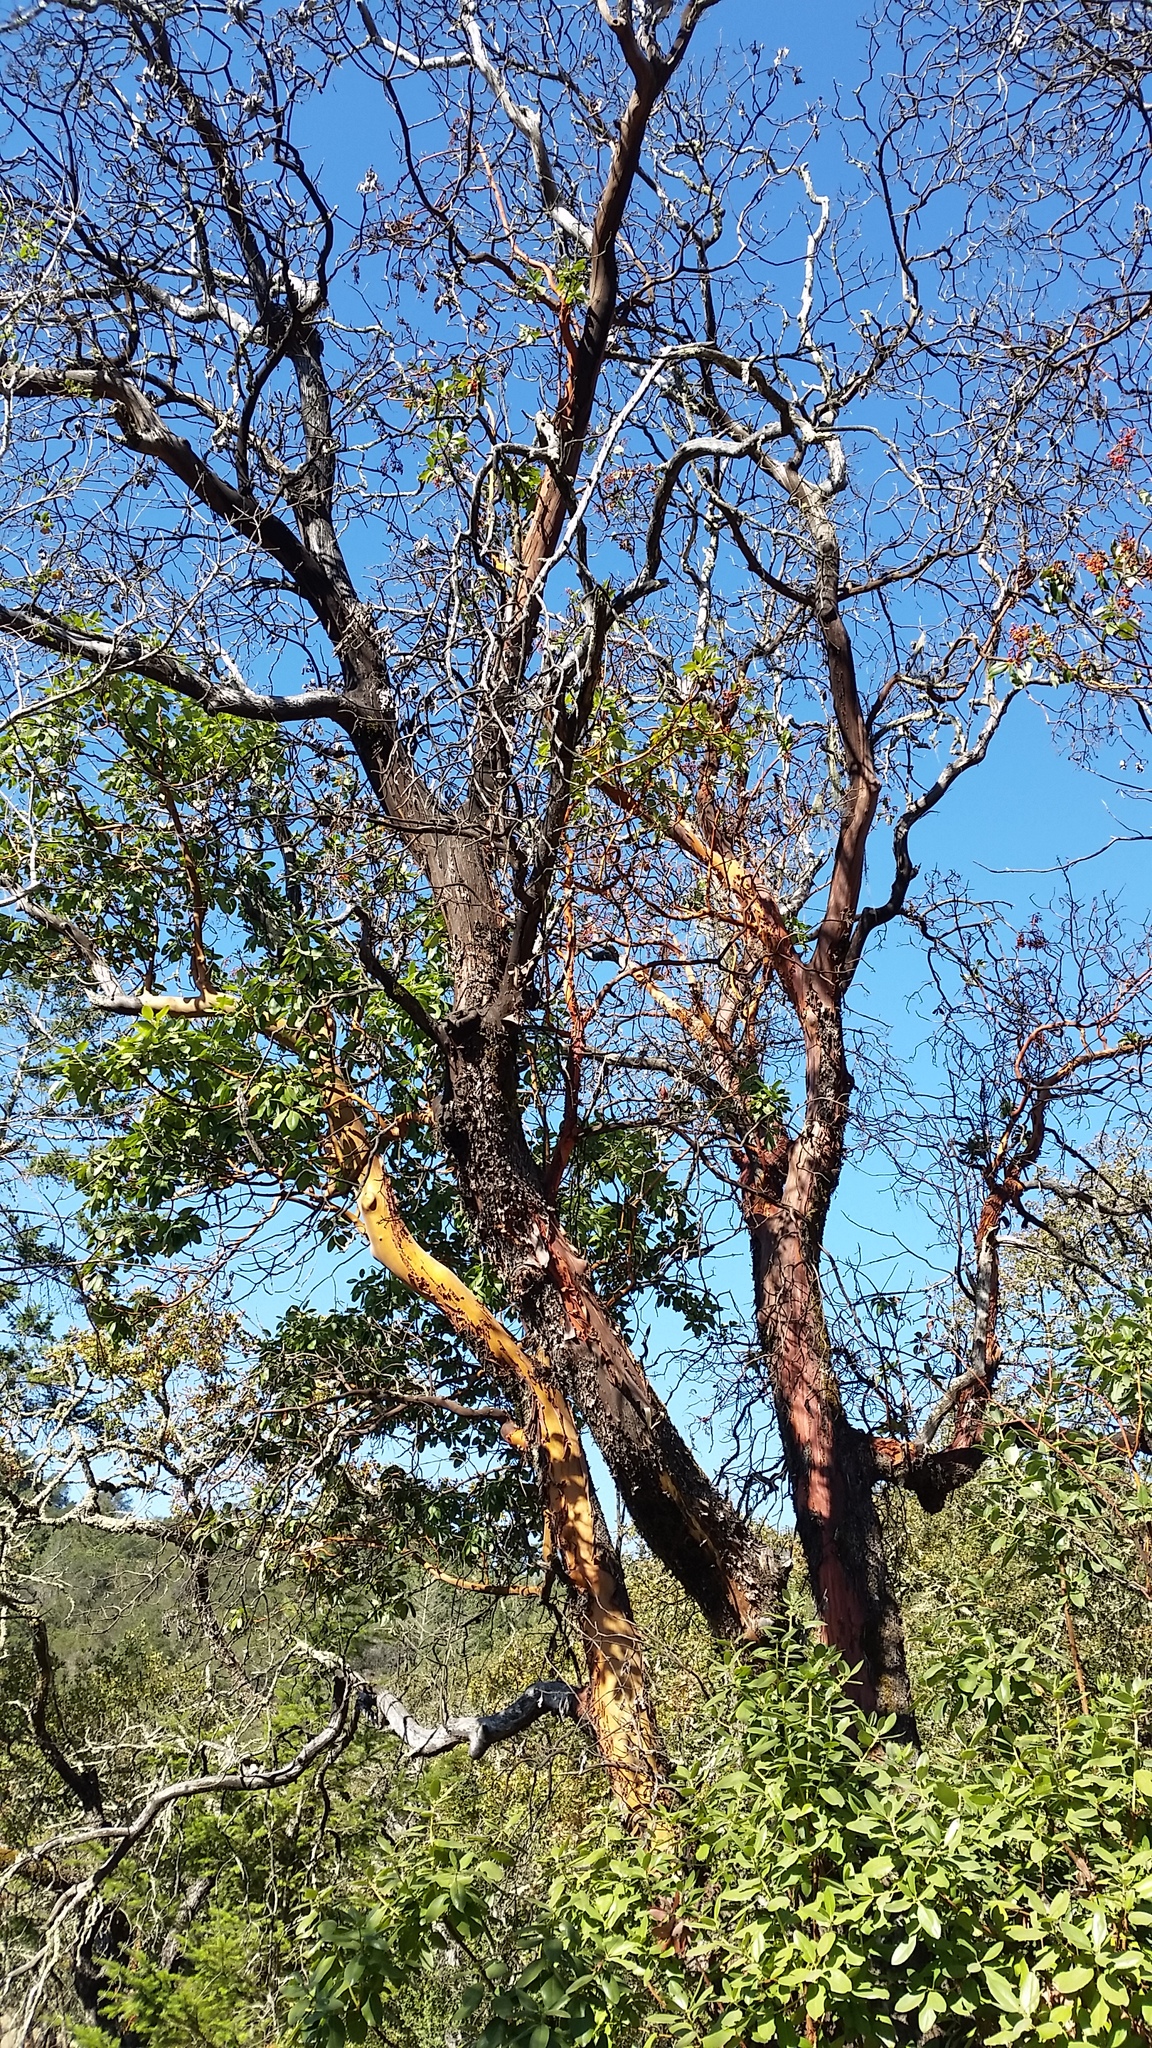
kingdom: Plantae
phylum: Tracheophyta
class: Magnoliopsida
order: Ericales
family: Ericaceae
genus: Arbutus
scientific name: Arbutus menziesii
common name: Pacific madrone
